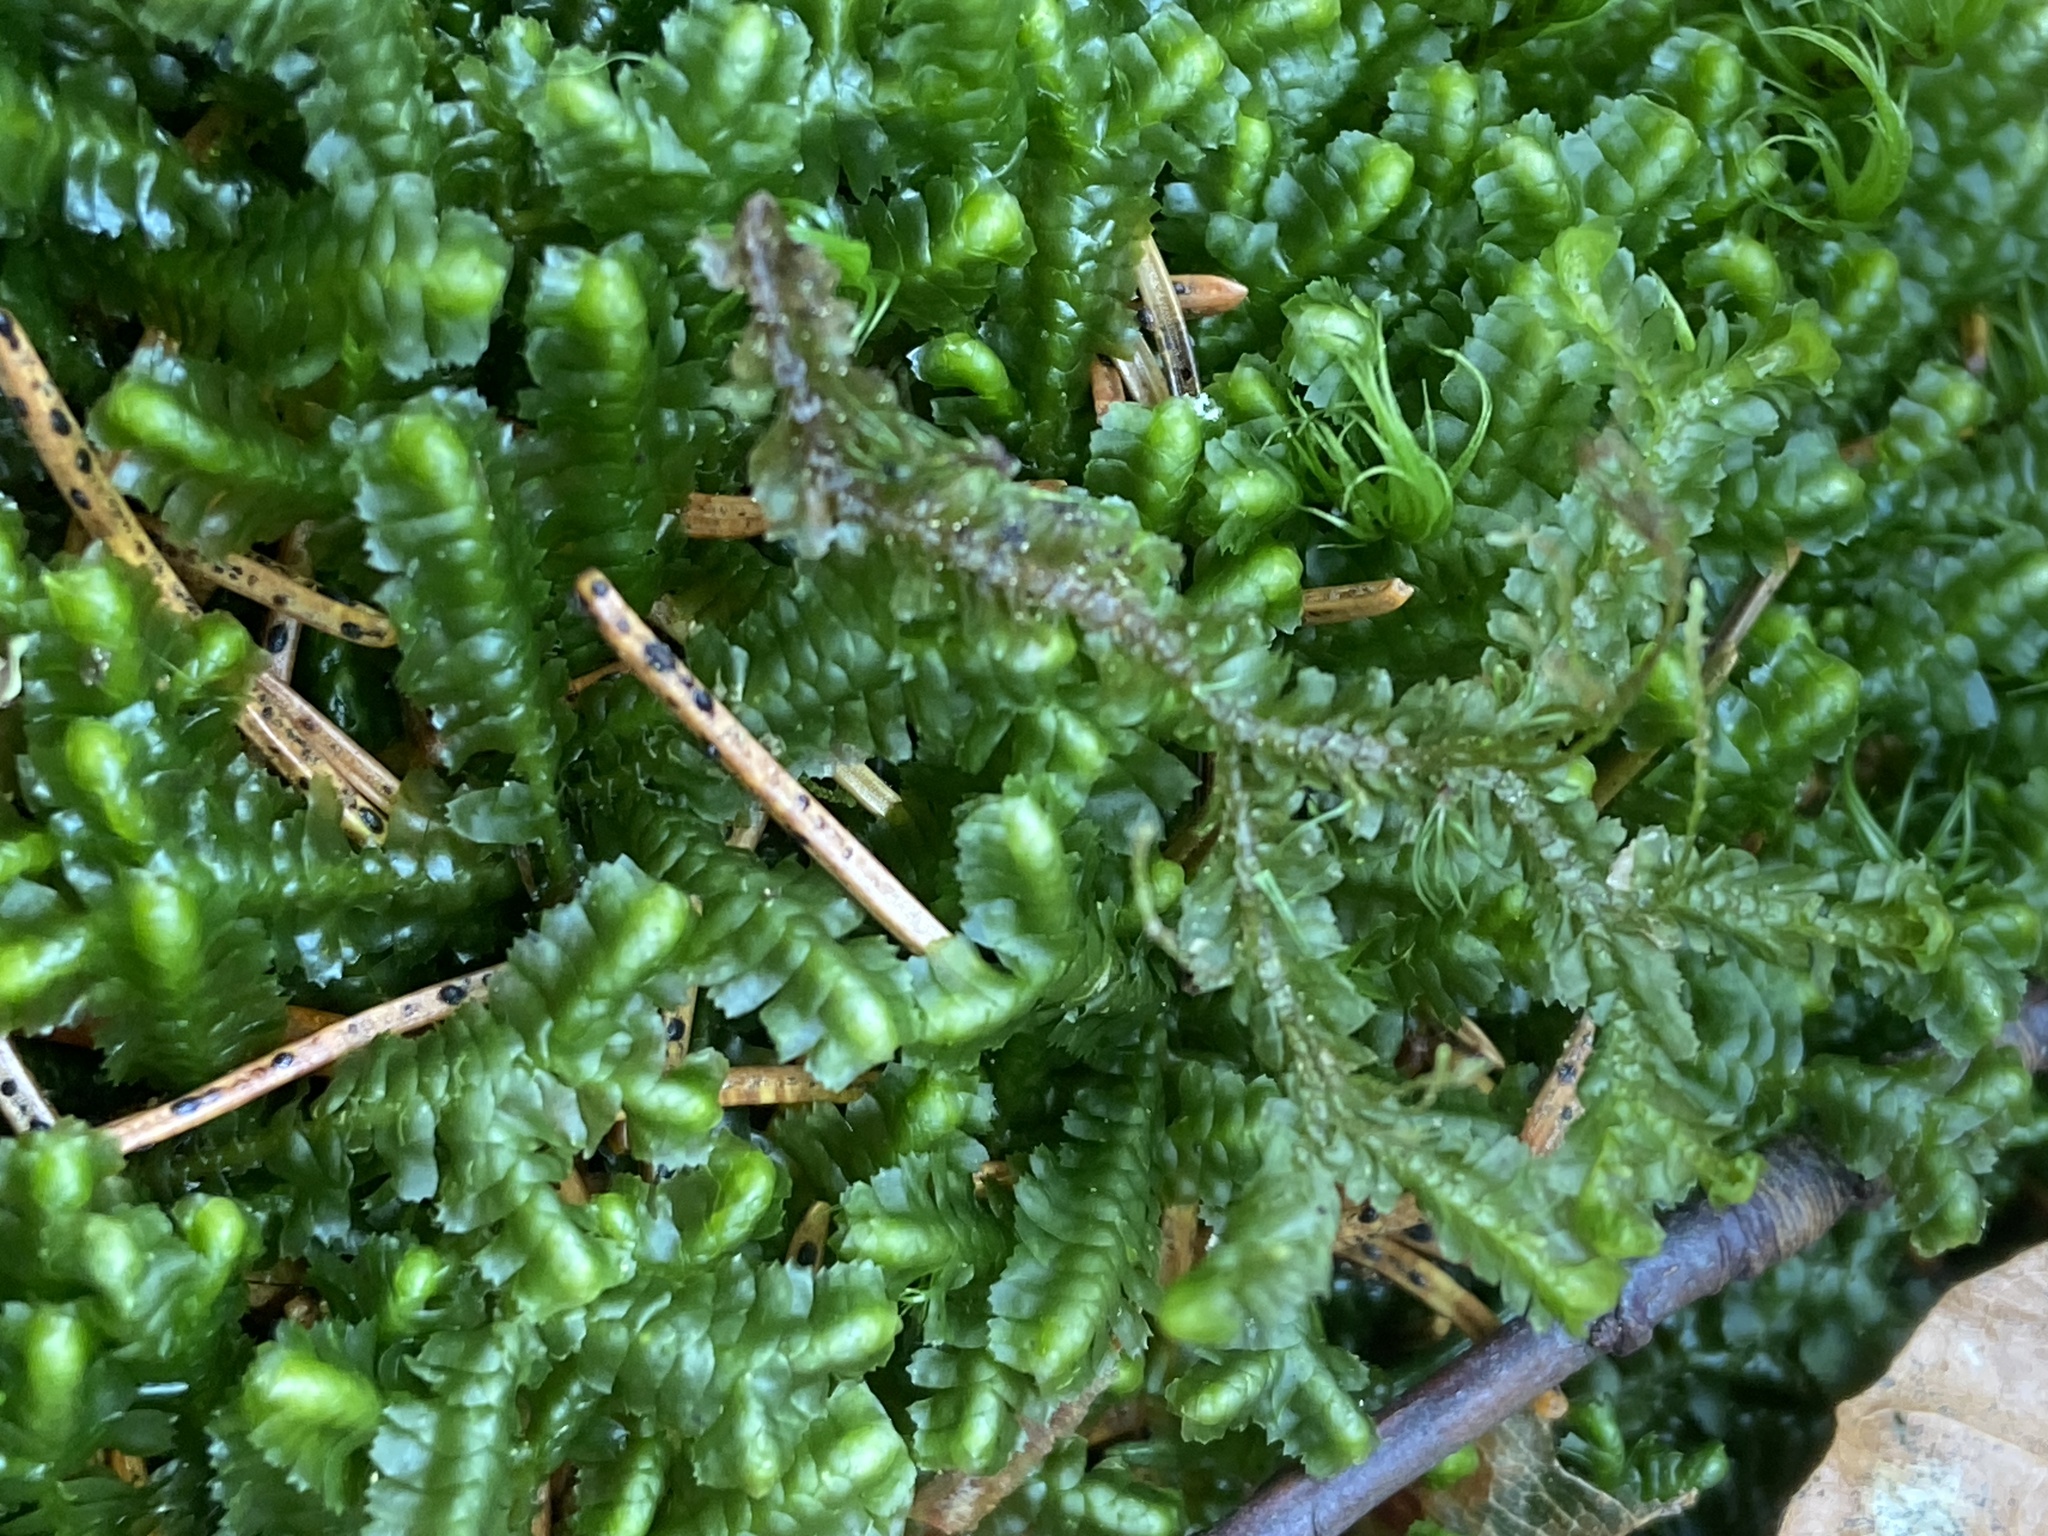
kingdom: Plantae
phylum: Marchantiophyta
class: Jungermanniopsida
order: Jungermanniales
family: Lepidoziaceae
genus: Bazzania
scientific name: Bazzania trilobata
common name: Three-lobed whipwort
